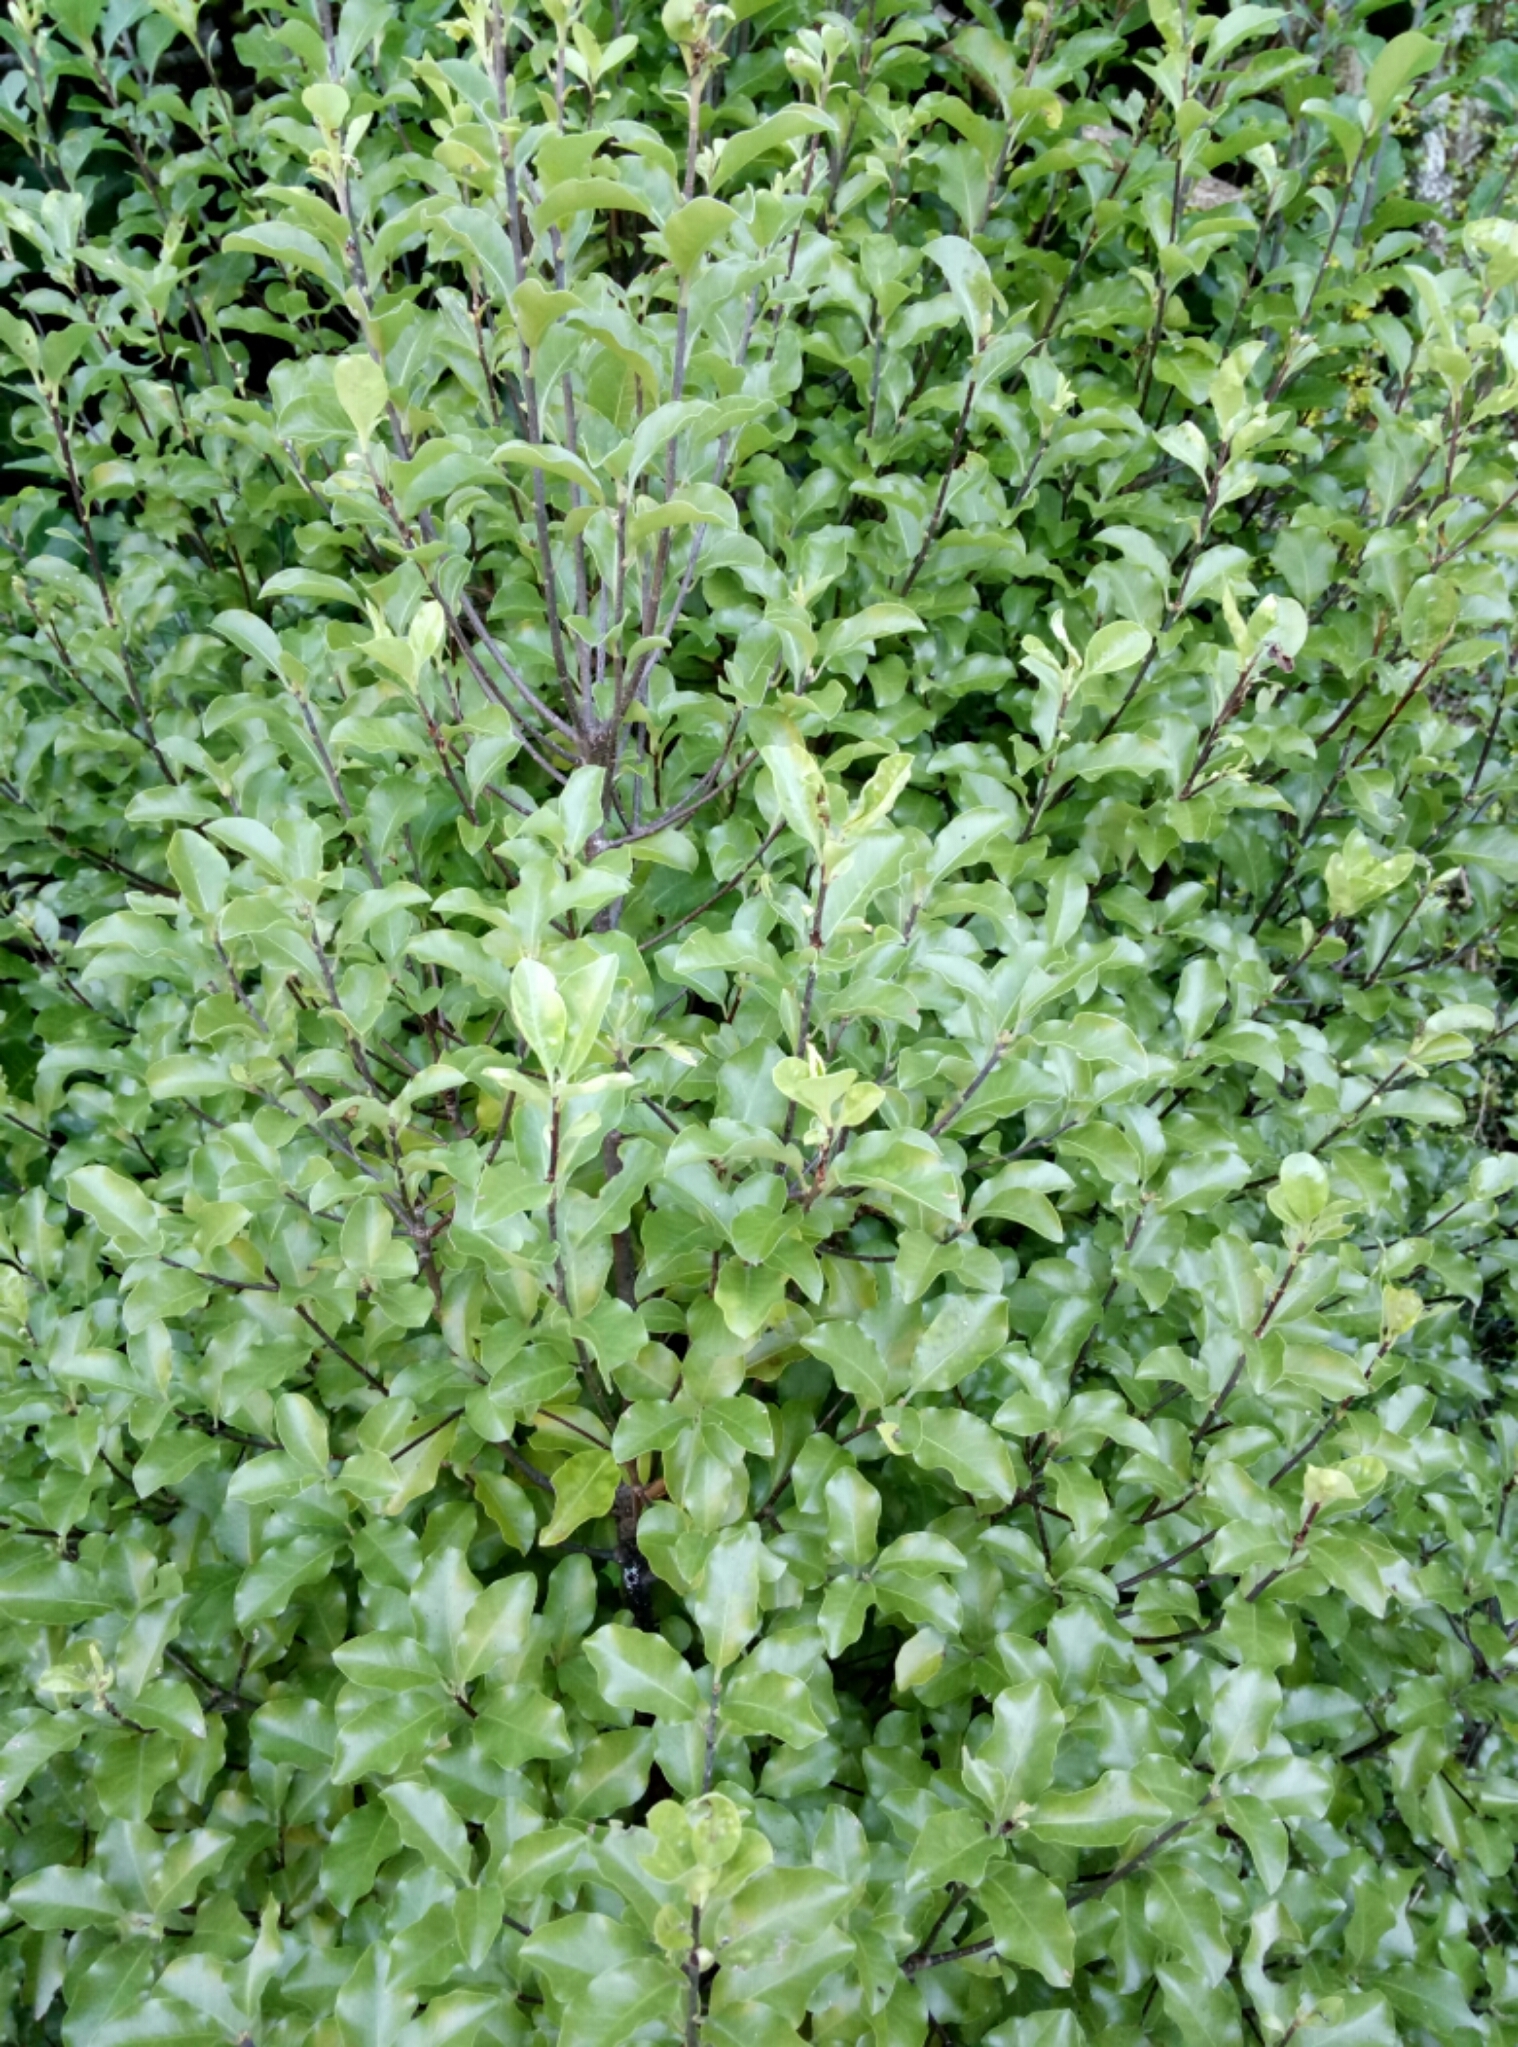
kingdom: Plantae
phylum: Tracheophyta
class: Magnoliopsida
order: Apiales
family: Pittosporaceae
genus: Pittosporum
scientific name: Pittosporum tenuifolium
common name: Kohuhu
